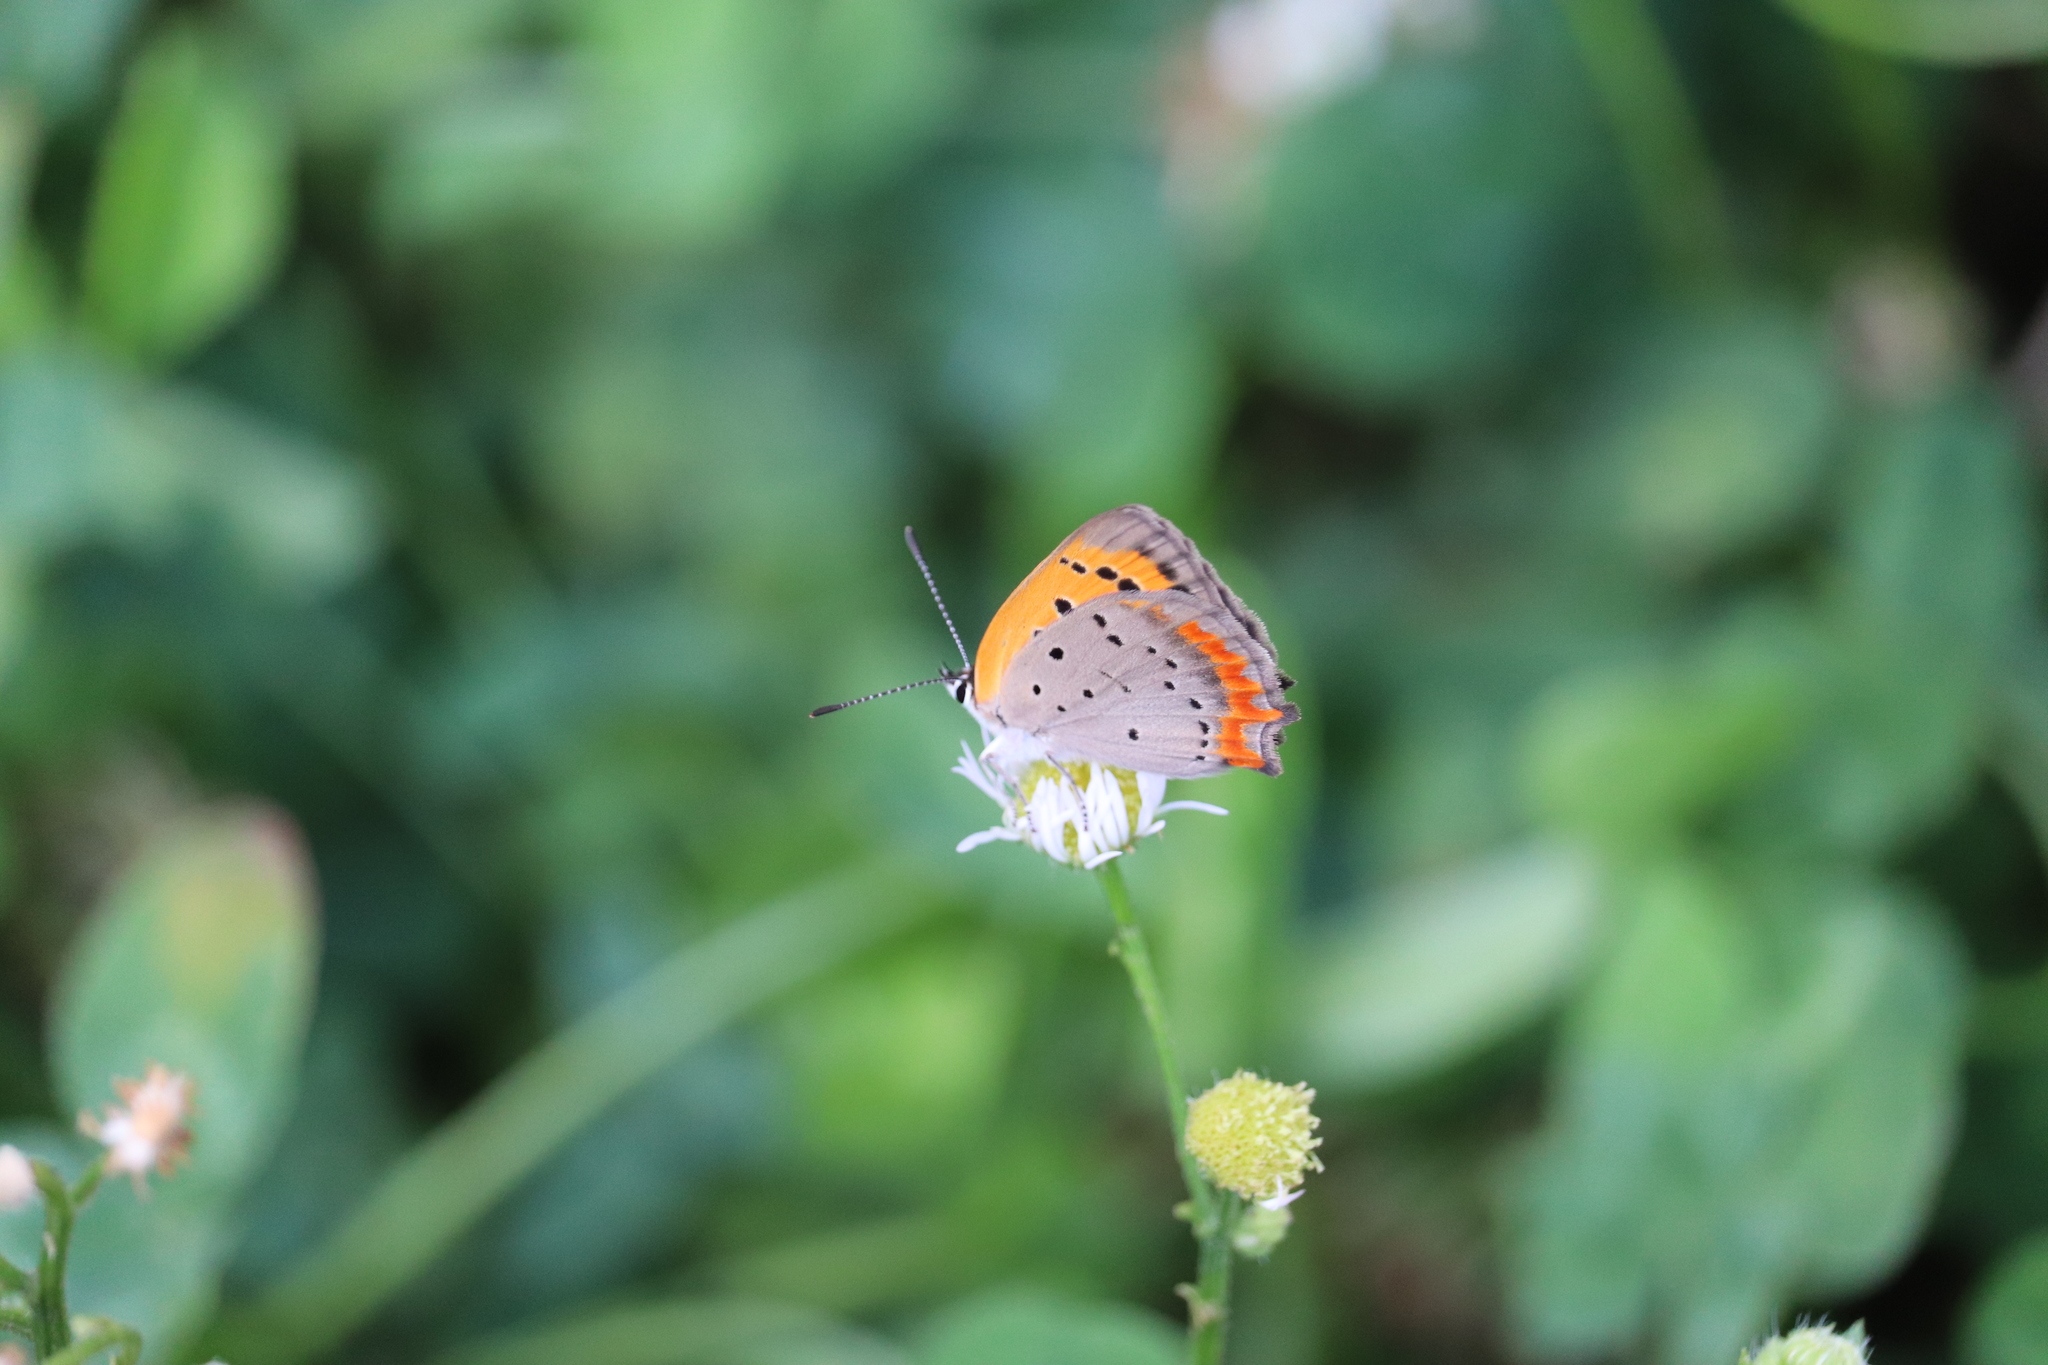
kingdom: Animalia
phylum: Arthropoda
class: Insecta
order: Lepidoptera
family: Lycaenidae
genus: Lycaena
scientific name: Lycaena phlaeas
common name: Small copper
